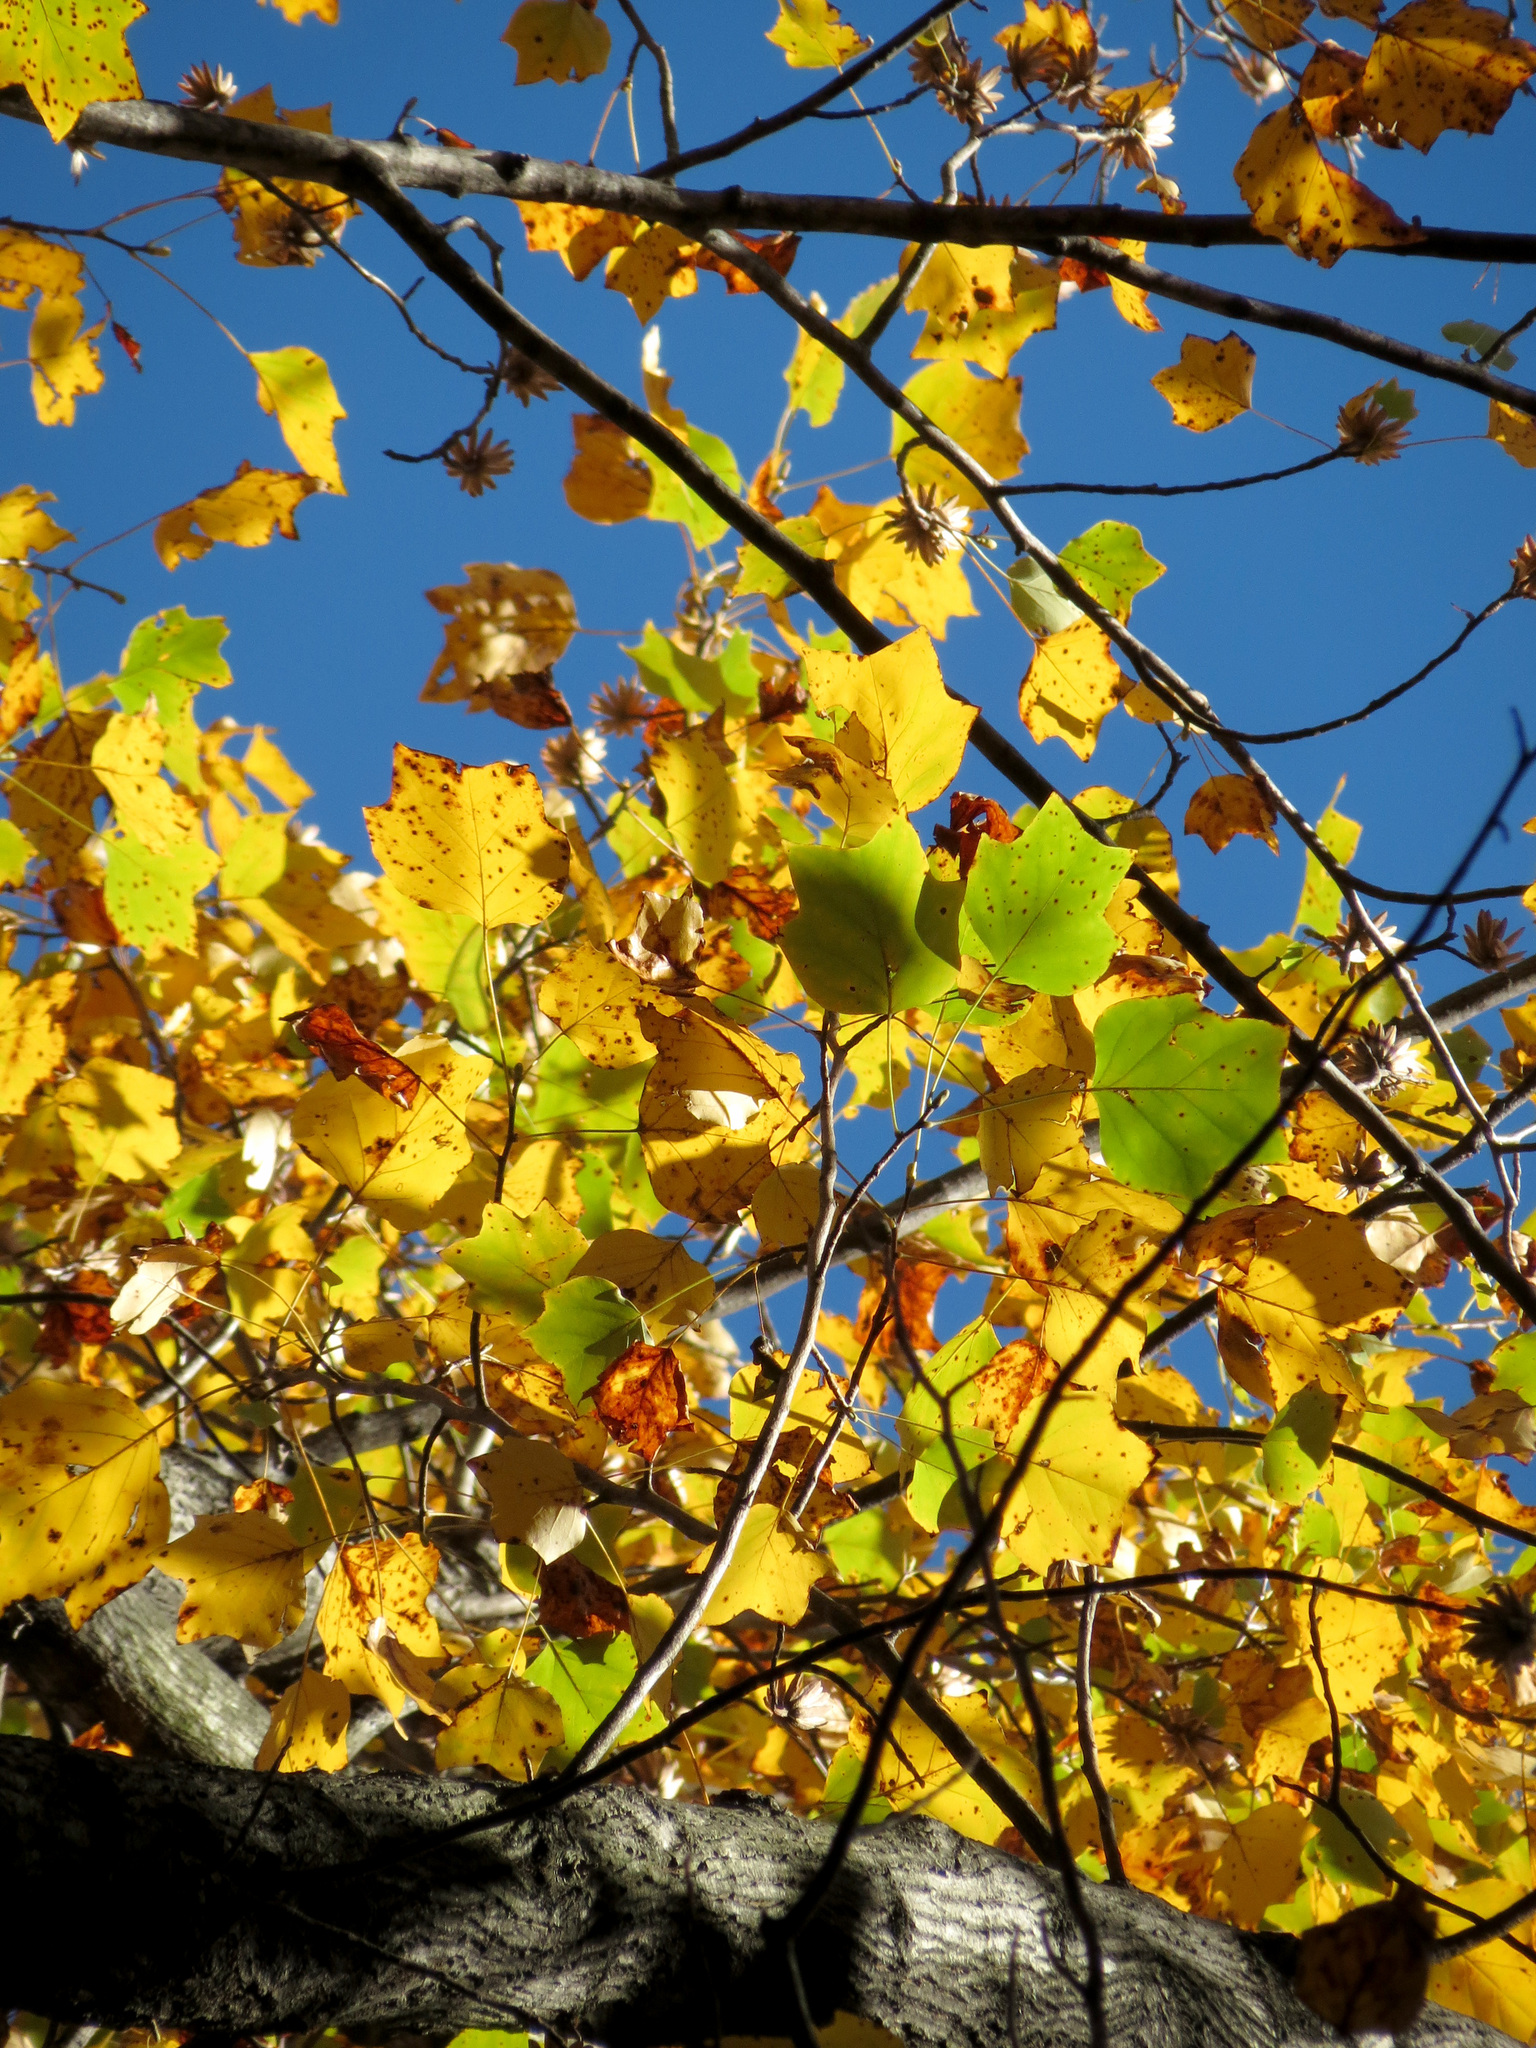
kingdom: Plantae
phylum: Tracheophyta
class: Magnoliopsida
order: Magnoliales
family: Magnoliaceae
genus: Liriodendron
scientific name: Liriodendron tulipifera
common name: Tulip tree
